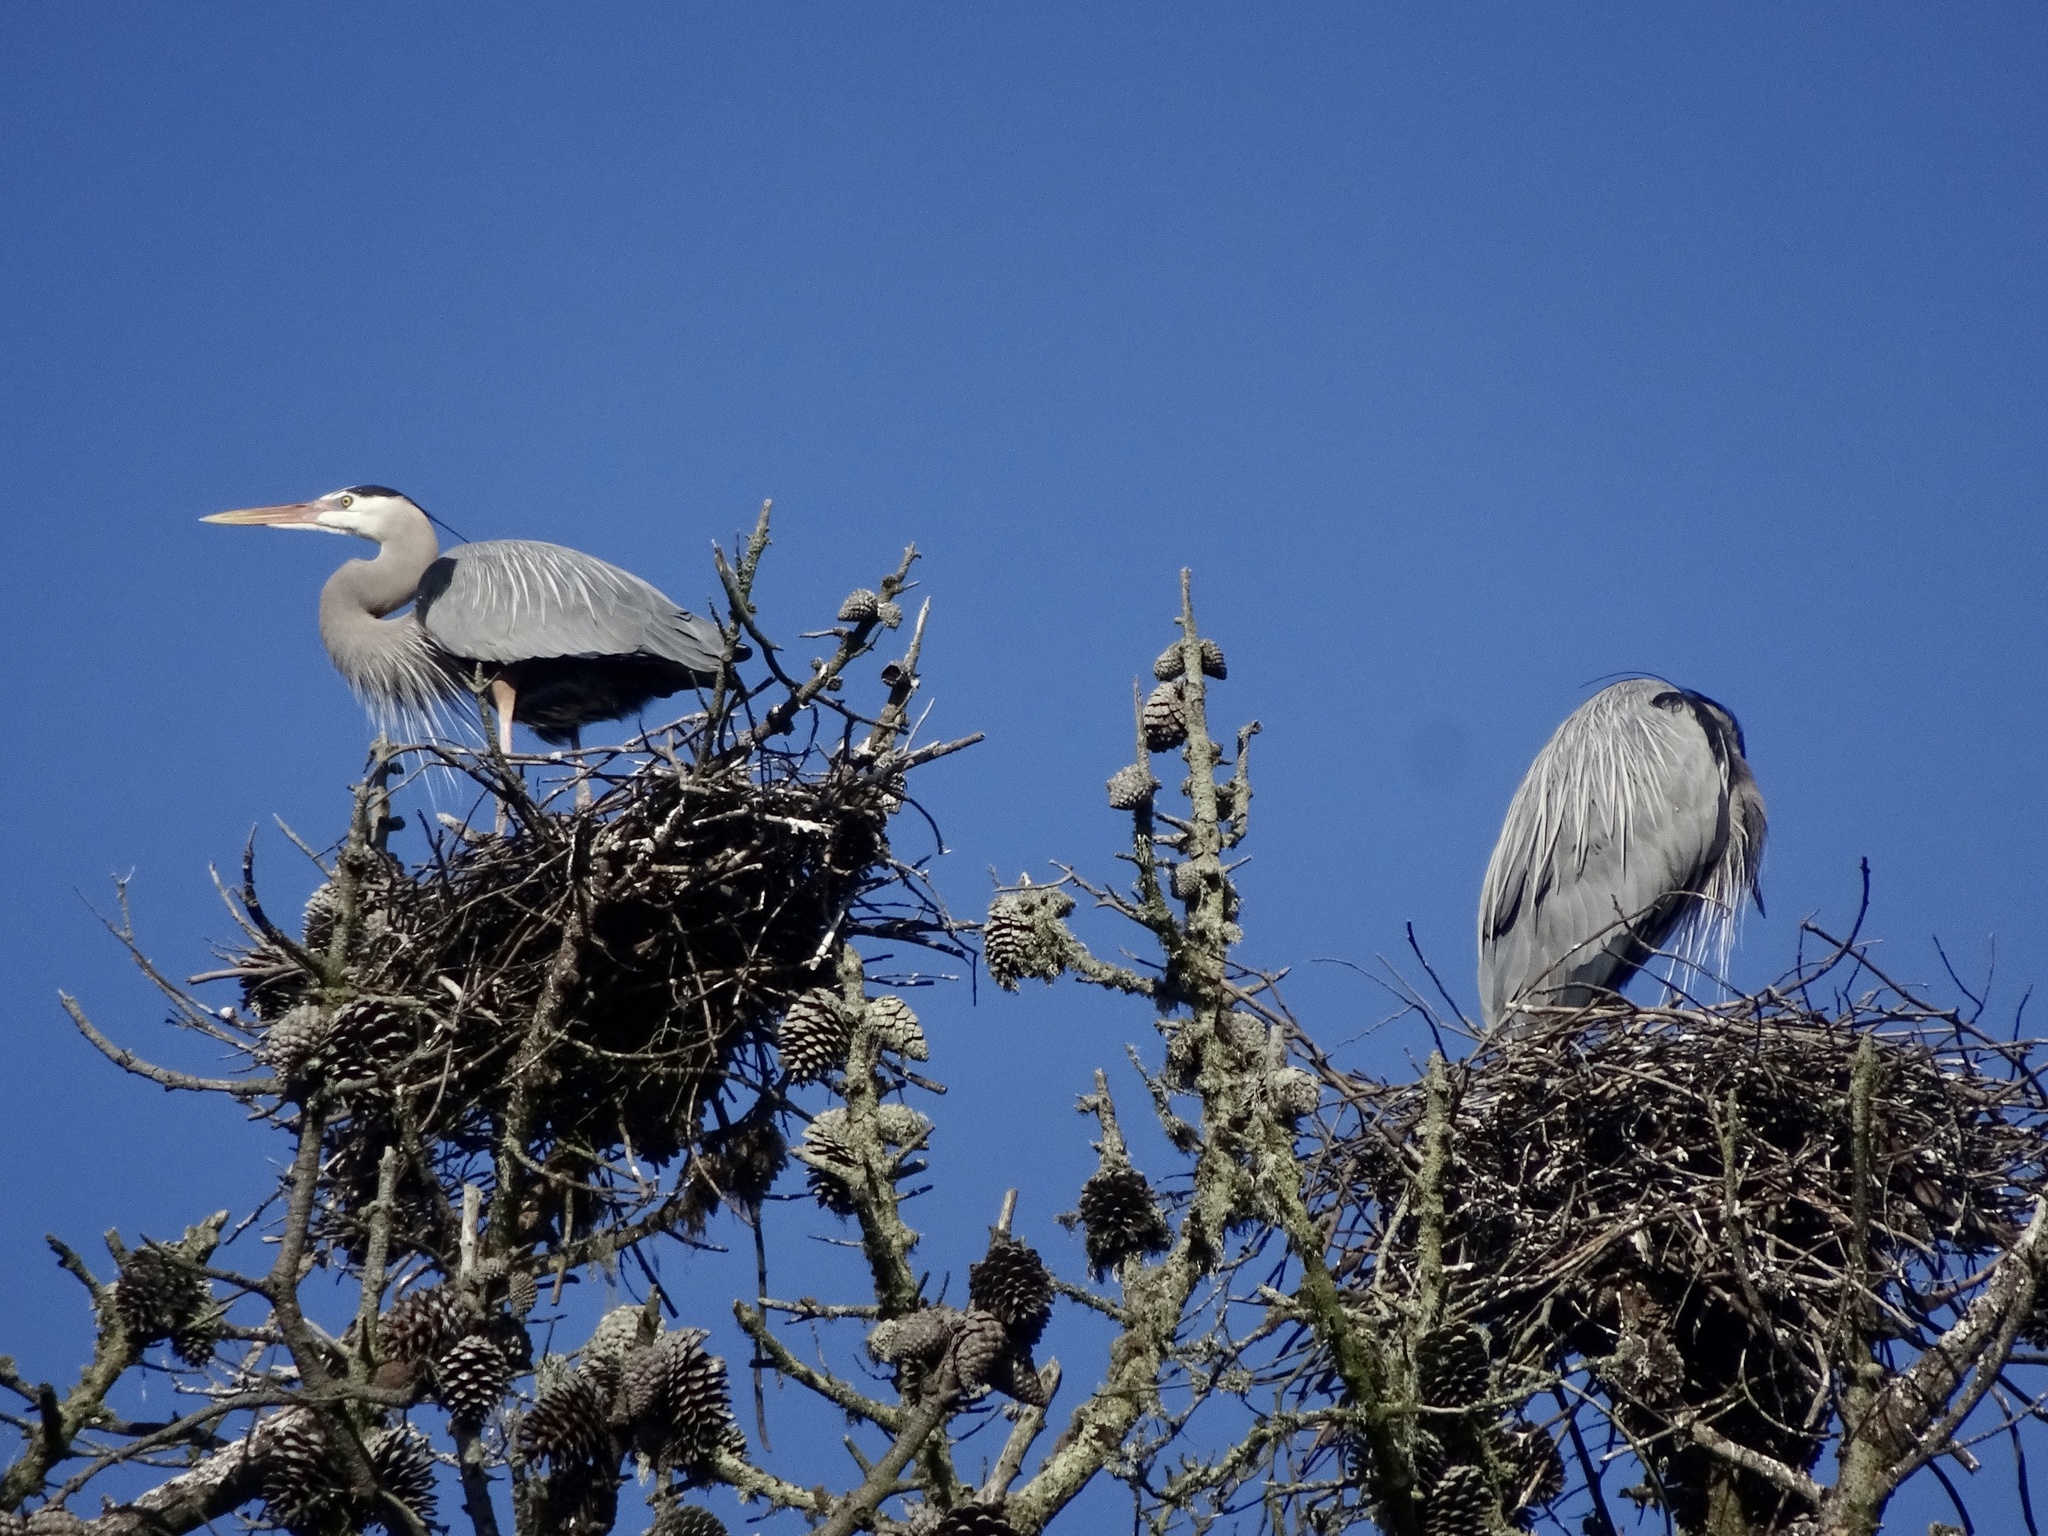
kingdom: Animalia
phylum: Chordata
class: Aves
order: Pelecaniformes
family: Ardeidae
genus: Ardea
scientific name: Ardea herodias
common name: Great blue heron
